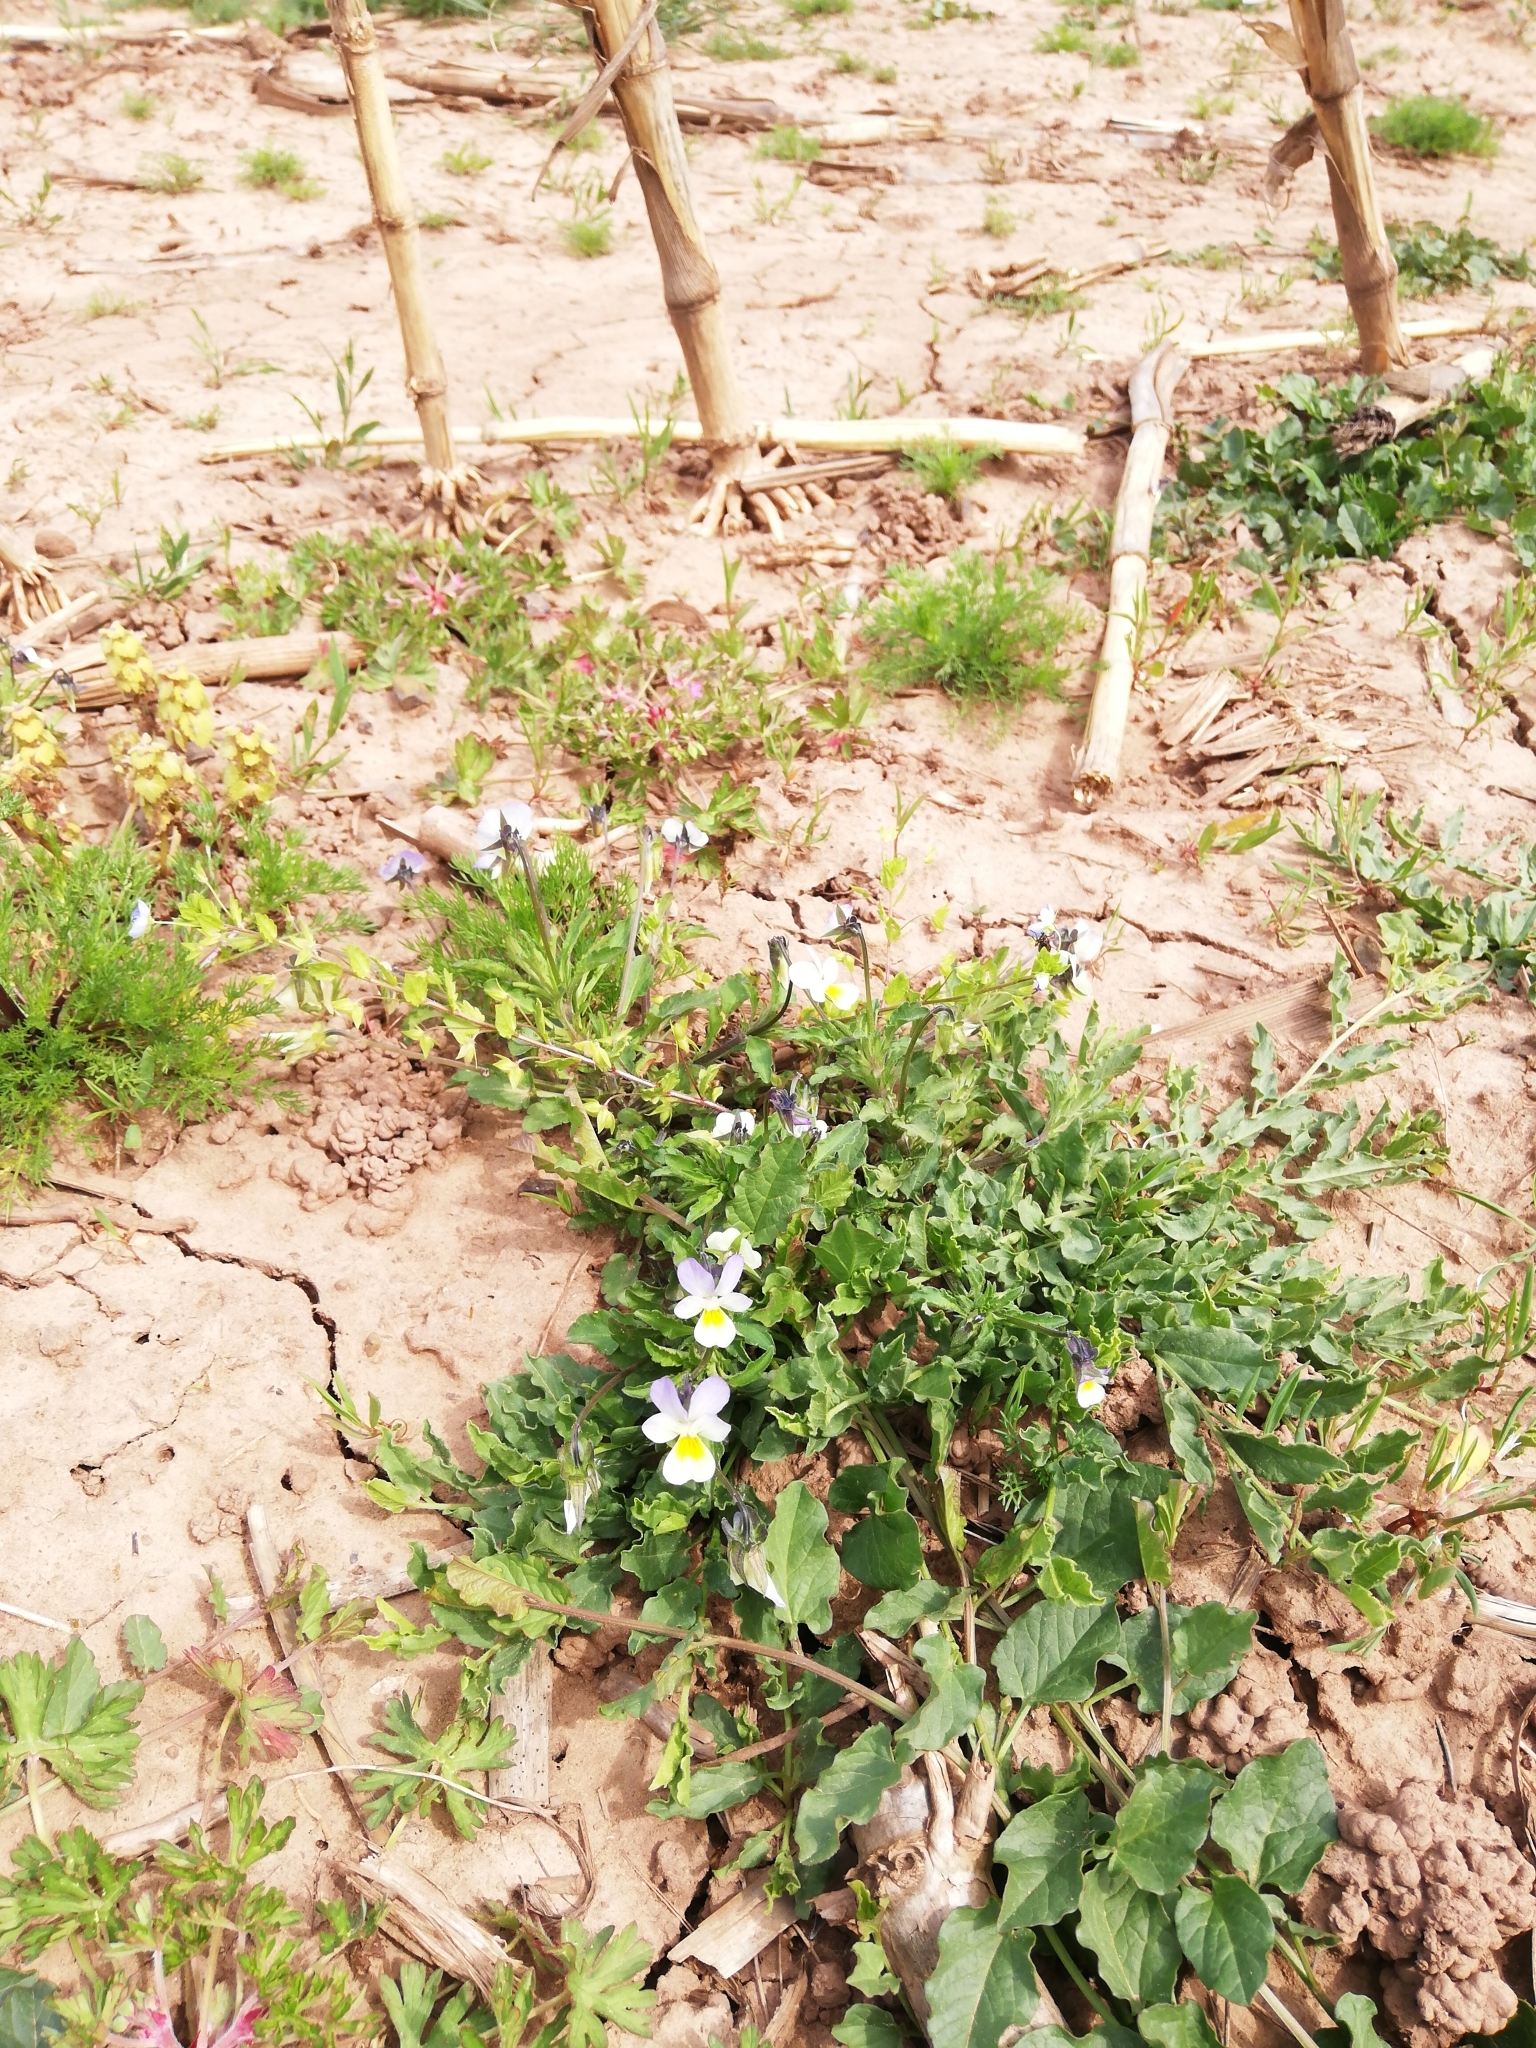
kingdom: Plantae
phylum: Tracheophyta
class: Magnoliopsida
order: Malpighiales
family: Violaceae
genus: Viola
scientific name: Viola arvensis
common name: Field pansy
